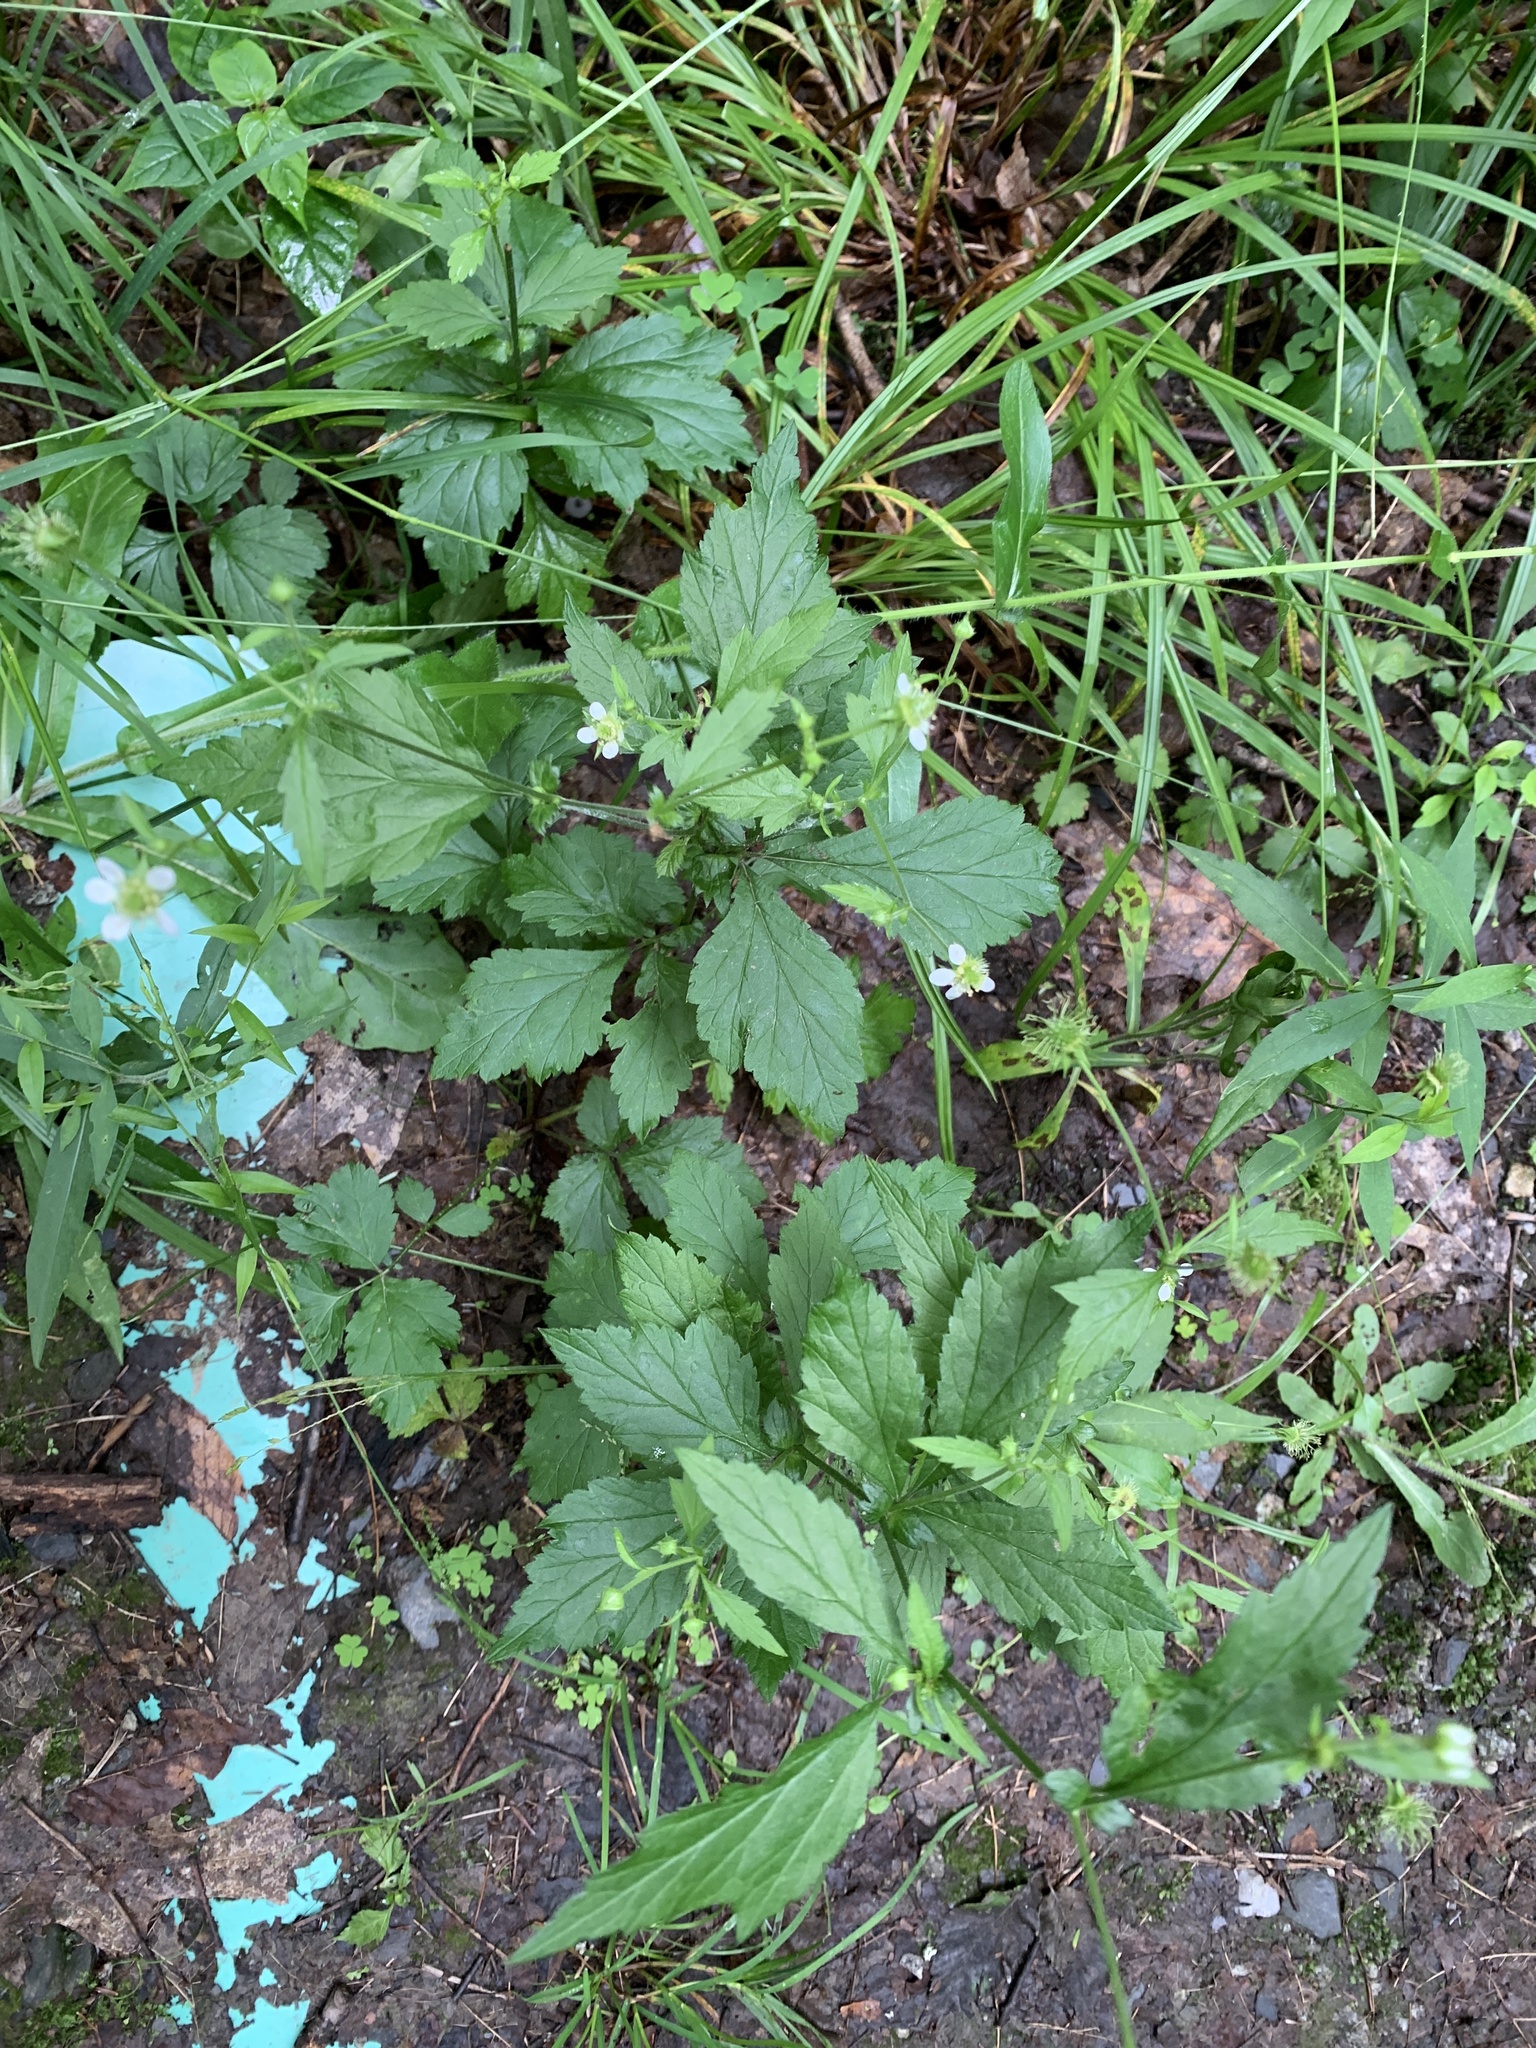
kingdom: Plantae
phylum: Tracheophyta
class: Magnoliopsida
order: Rosales
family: Rosaceae
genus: Geum
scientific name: Geum canadense
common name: White avens
